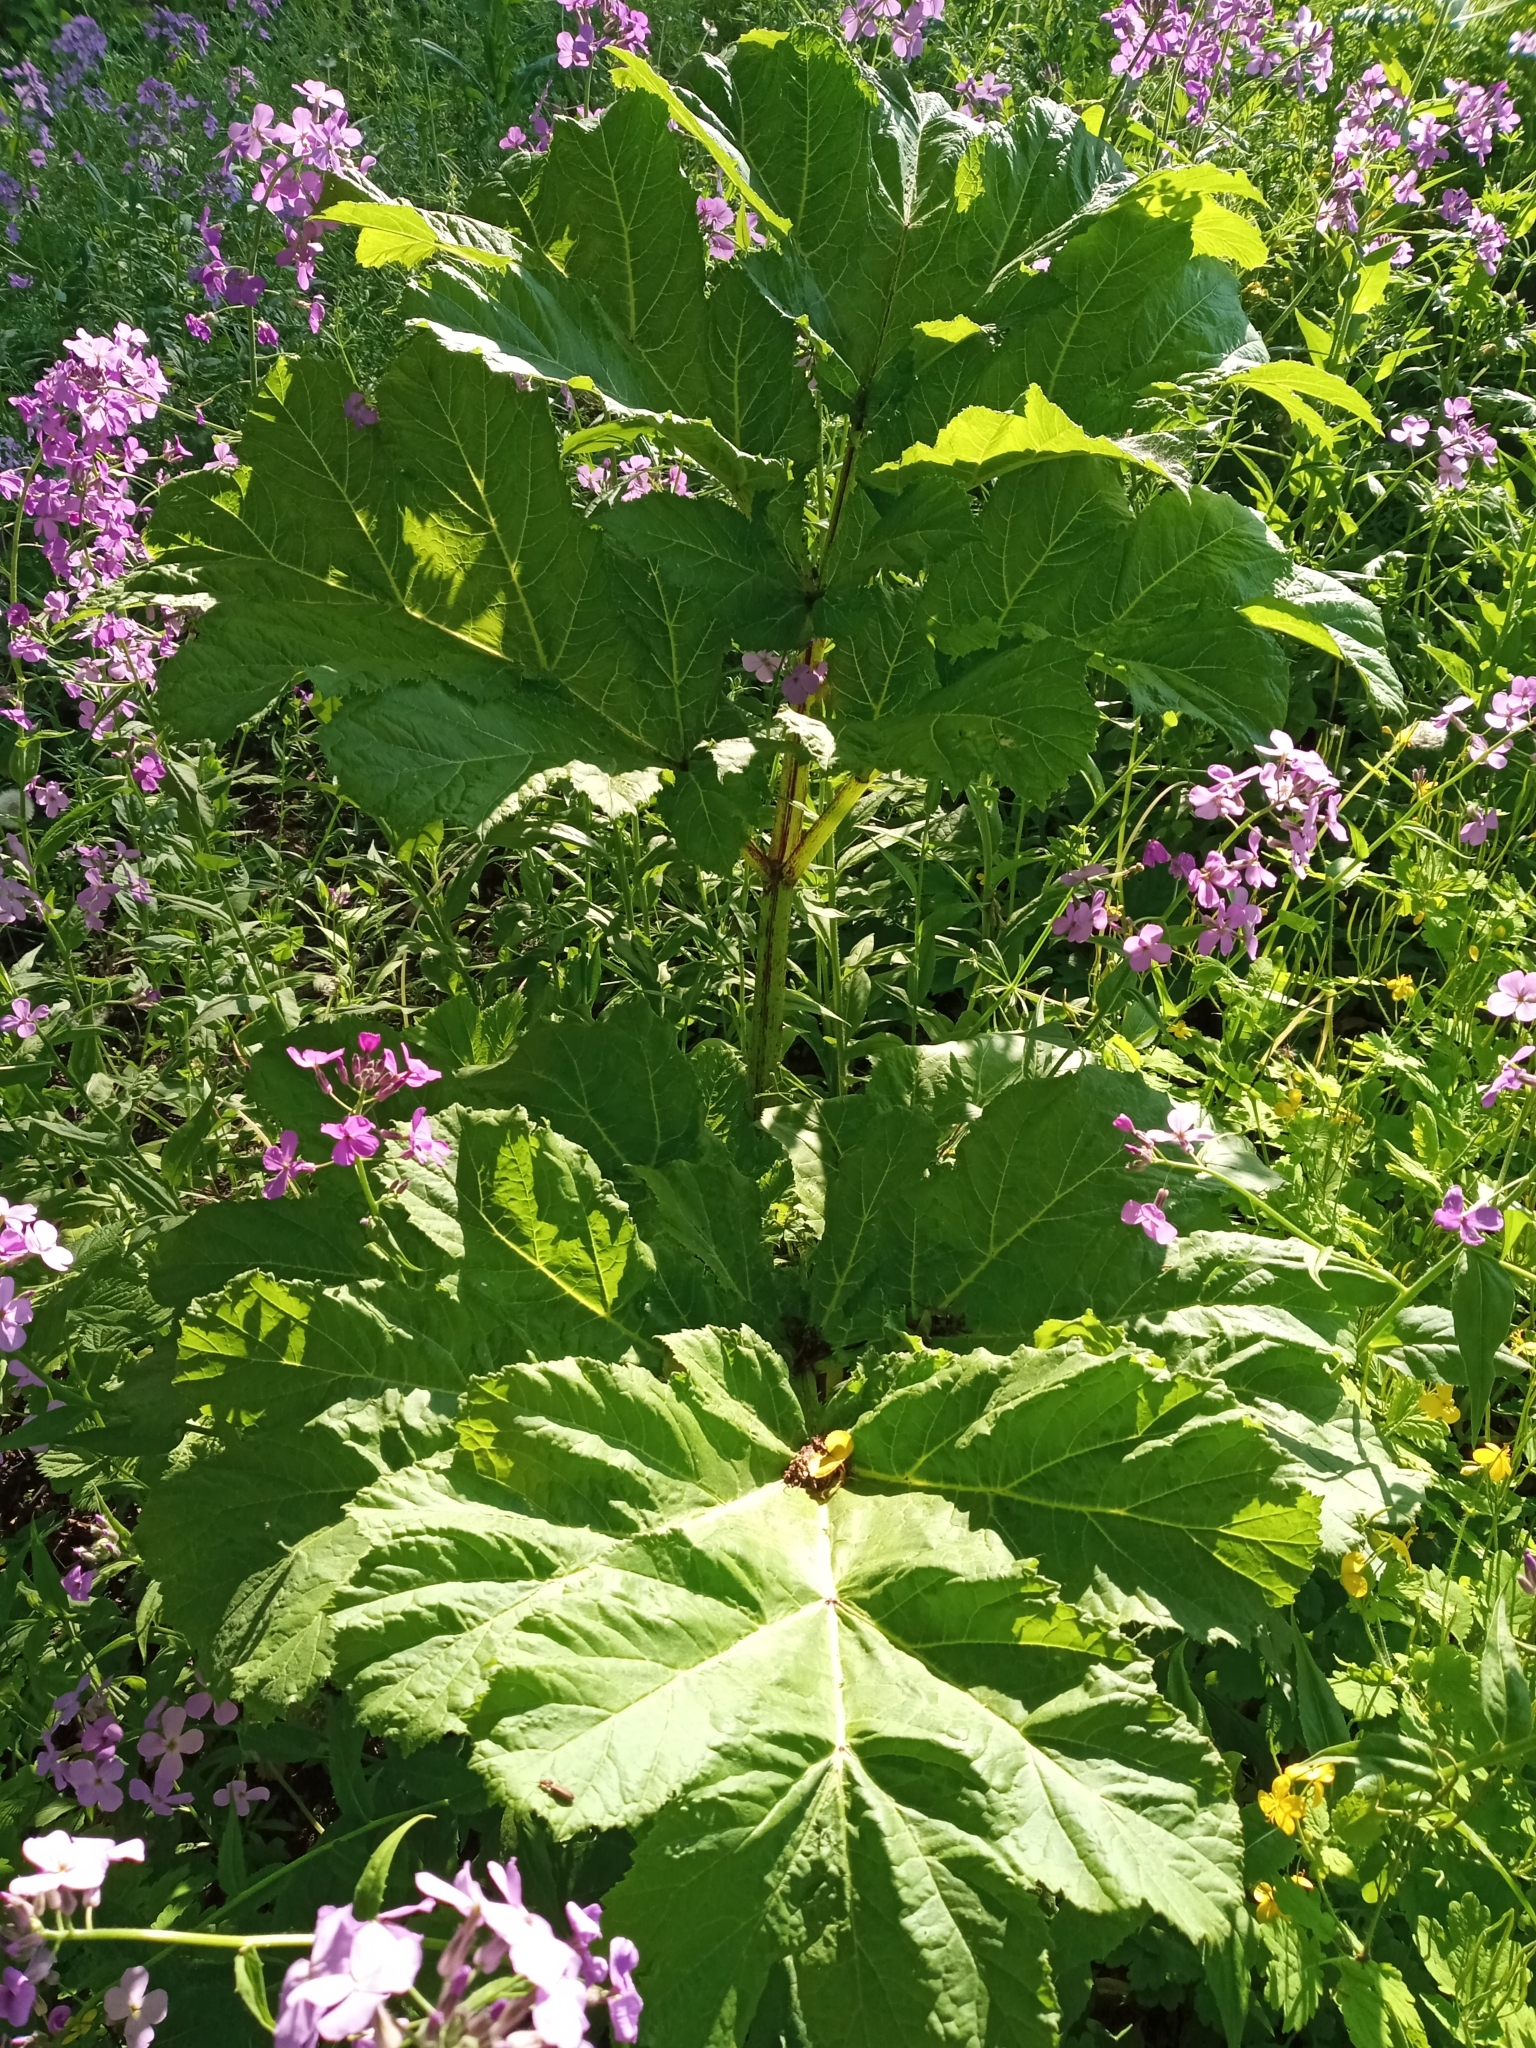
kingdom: Plantae
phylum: Tracheophyta
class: Magnoliopsida
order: Apiales
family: Apiaceae
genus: Heracleum
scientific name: Heracleum sosnowskyi
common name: Sosnowsky's hogweed
